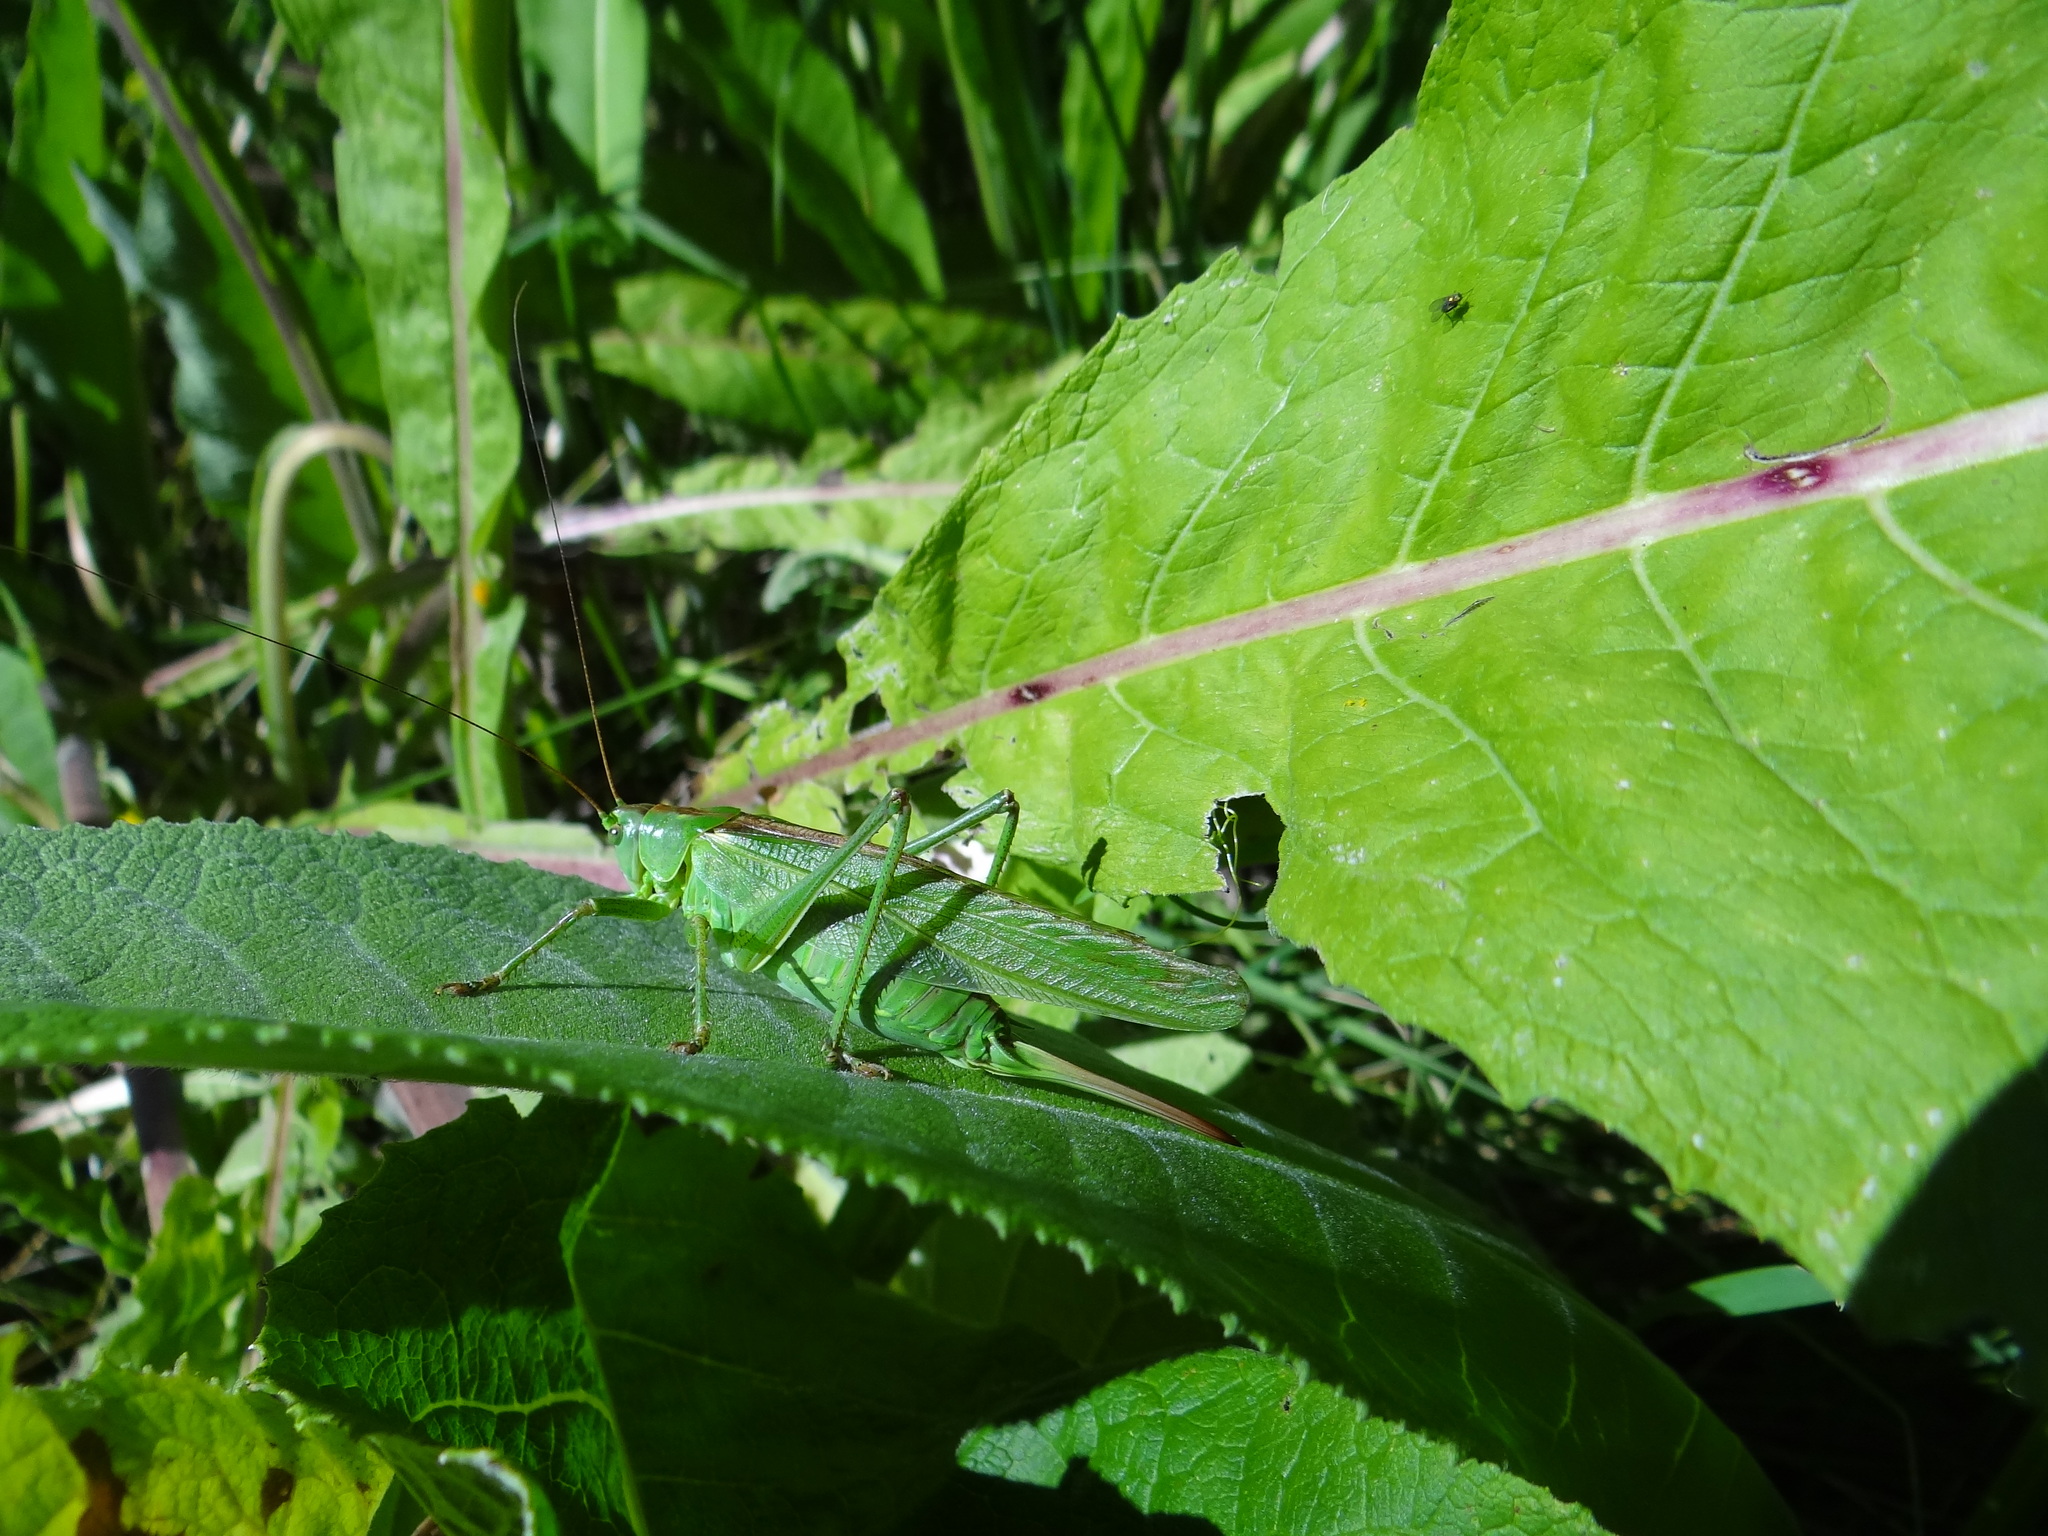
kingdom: Animalia
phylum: Arthropoda
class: Insecta
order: Orthoptera
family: Tettigoniidae
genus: Tettigonia
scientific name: Tettigonia viridissima
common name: Great green bush-cricket
